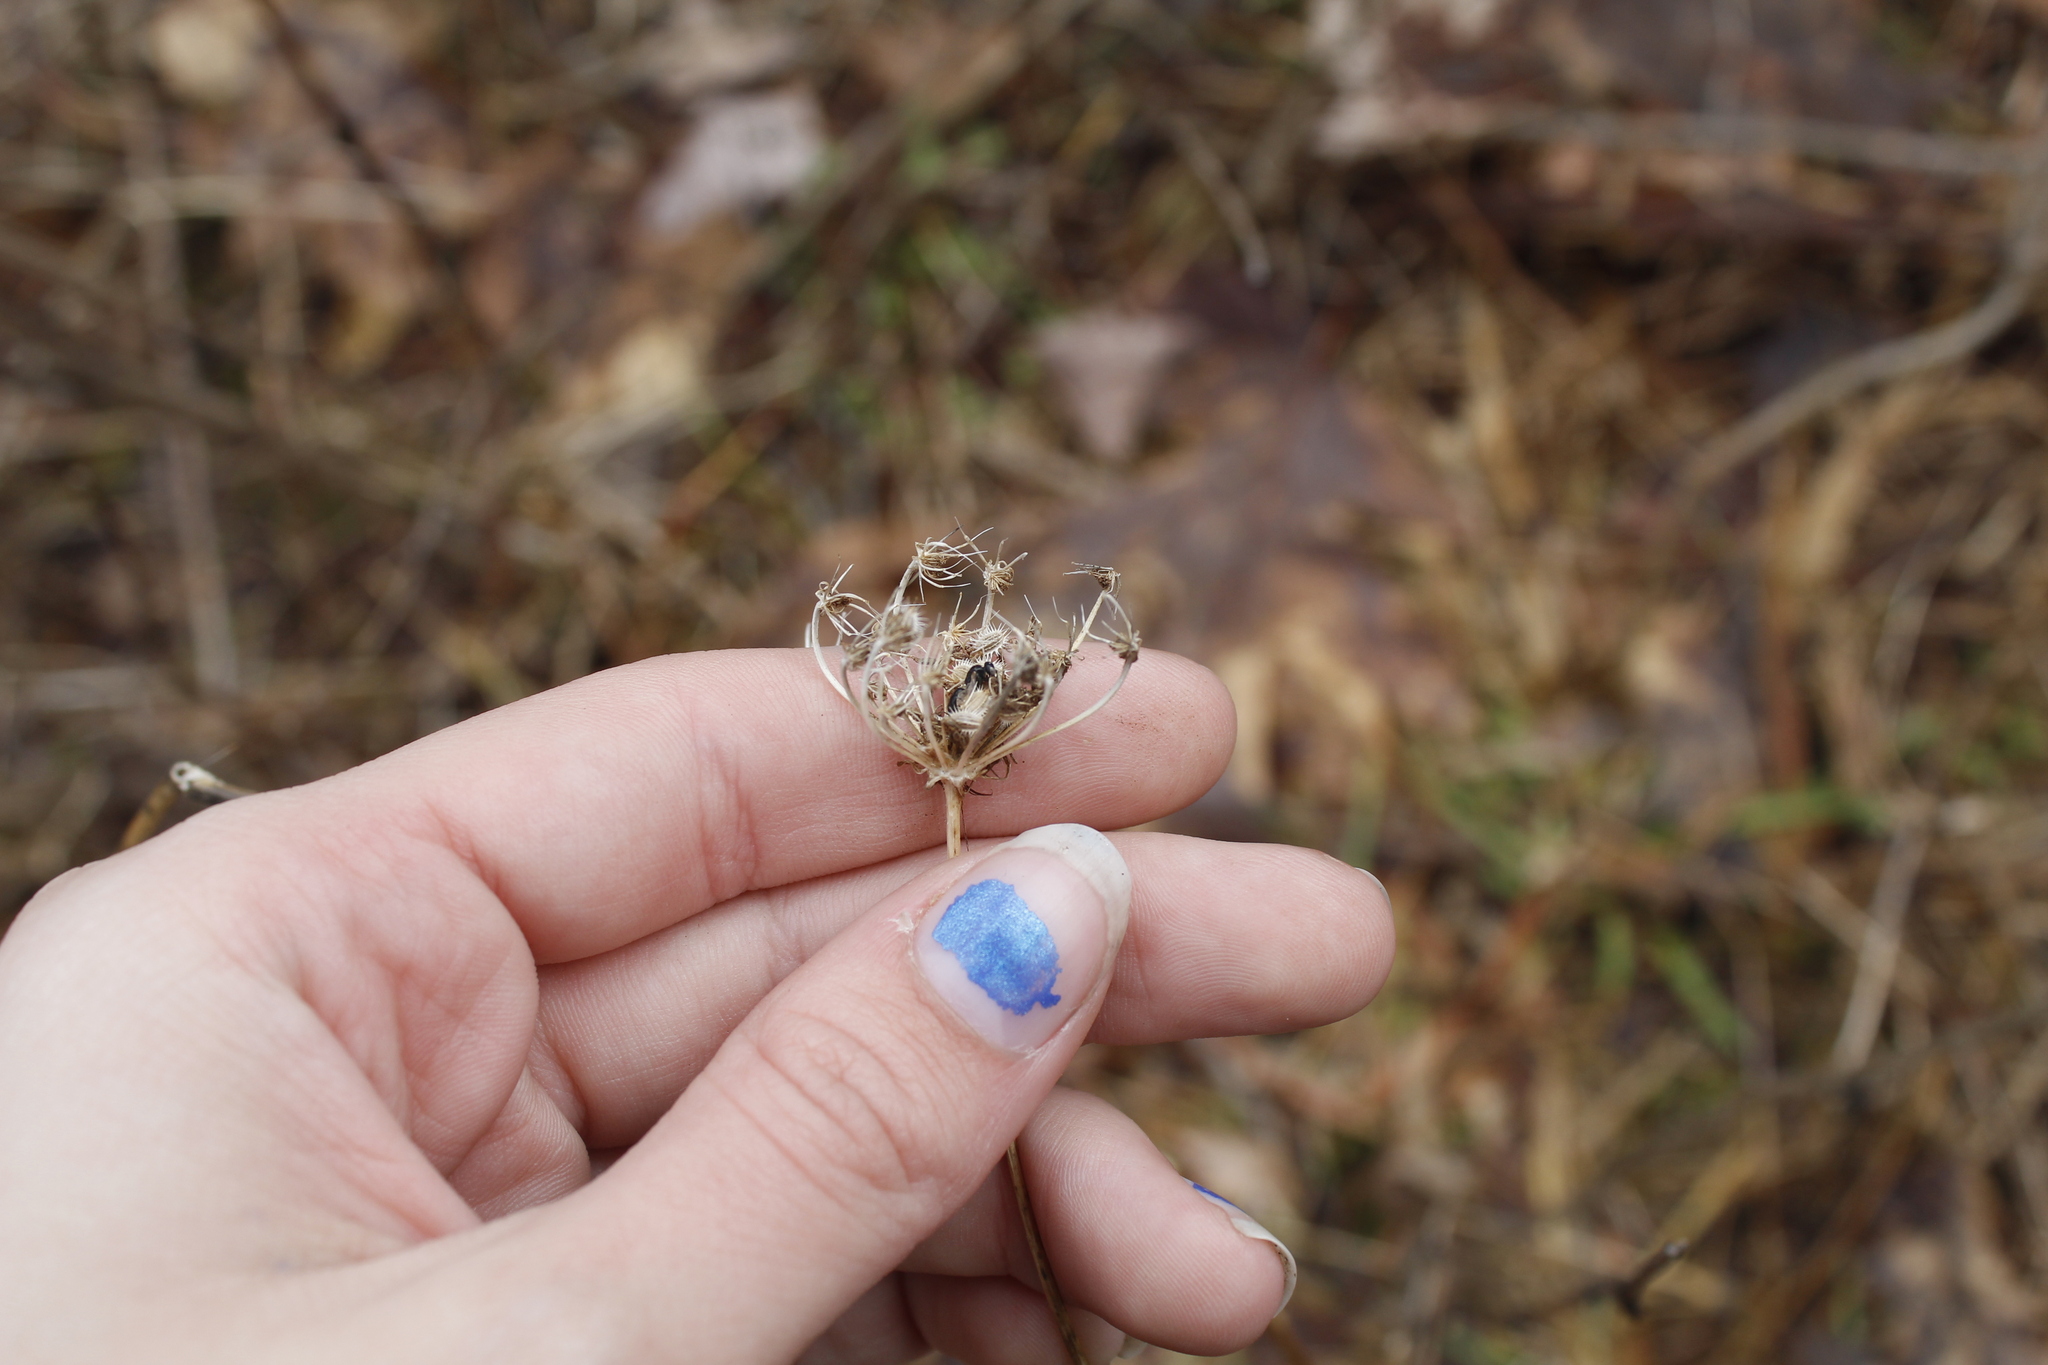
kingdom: Plantae
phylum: Tracheophyta
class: Magnoliopsida
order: Apiales
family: Apiaceae
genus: Daucus
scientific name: Daucus carota
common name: Wild carrot
